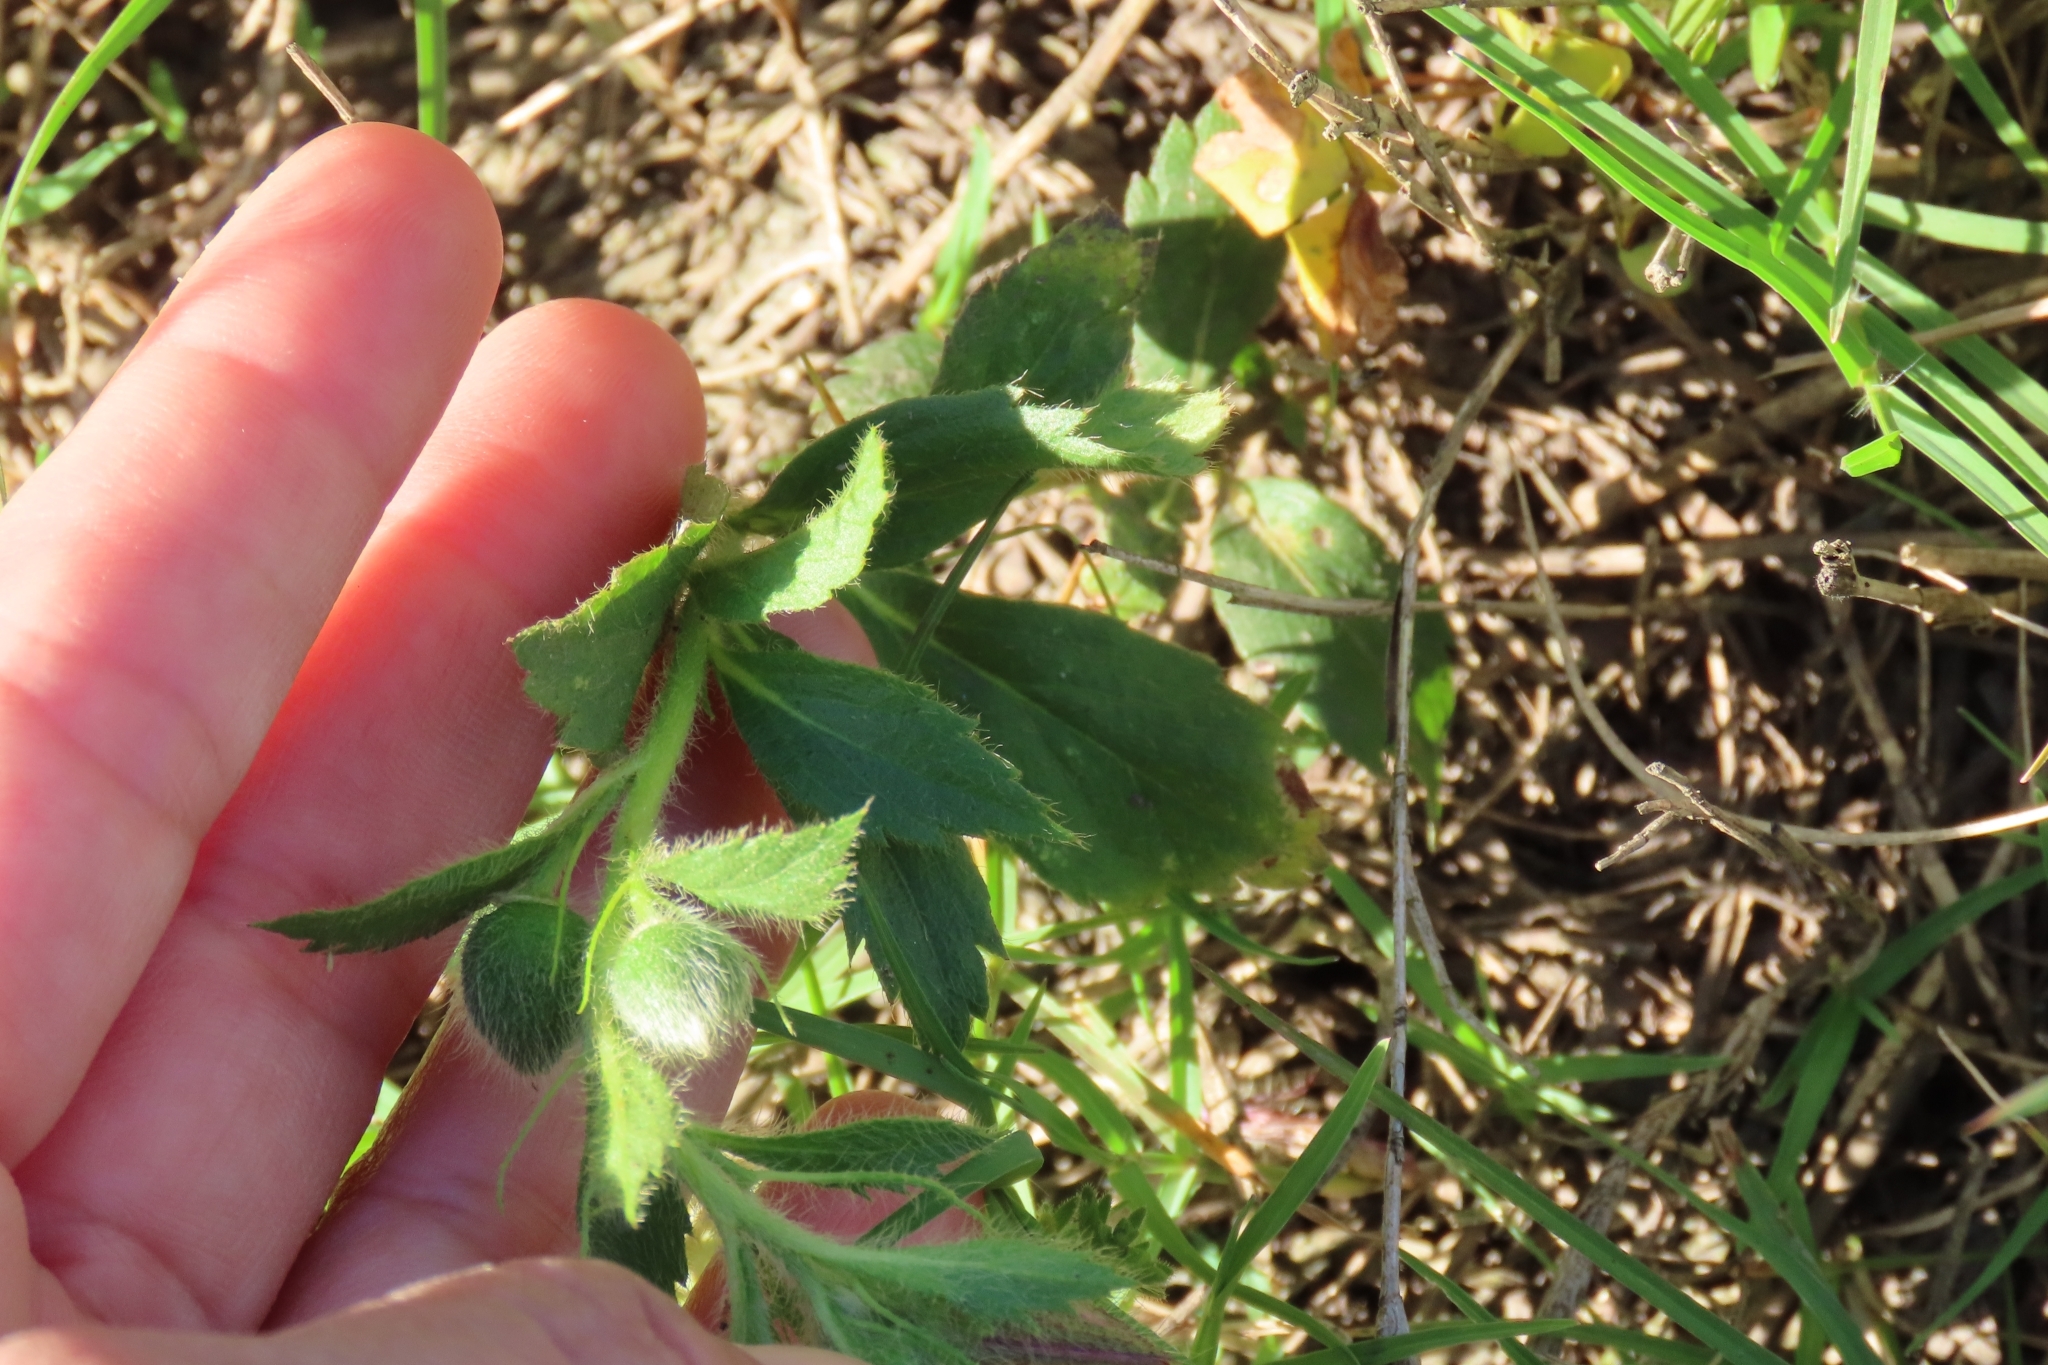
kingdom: Plantae
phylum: Tracheophyta
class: Magnoliopsida
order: Malpighiales
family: Turneraceae
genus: Turnera
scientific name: Turnera sidoides
